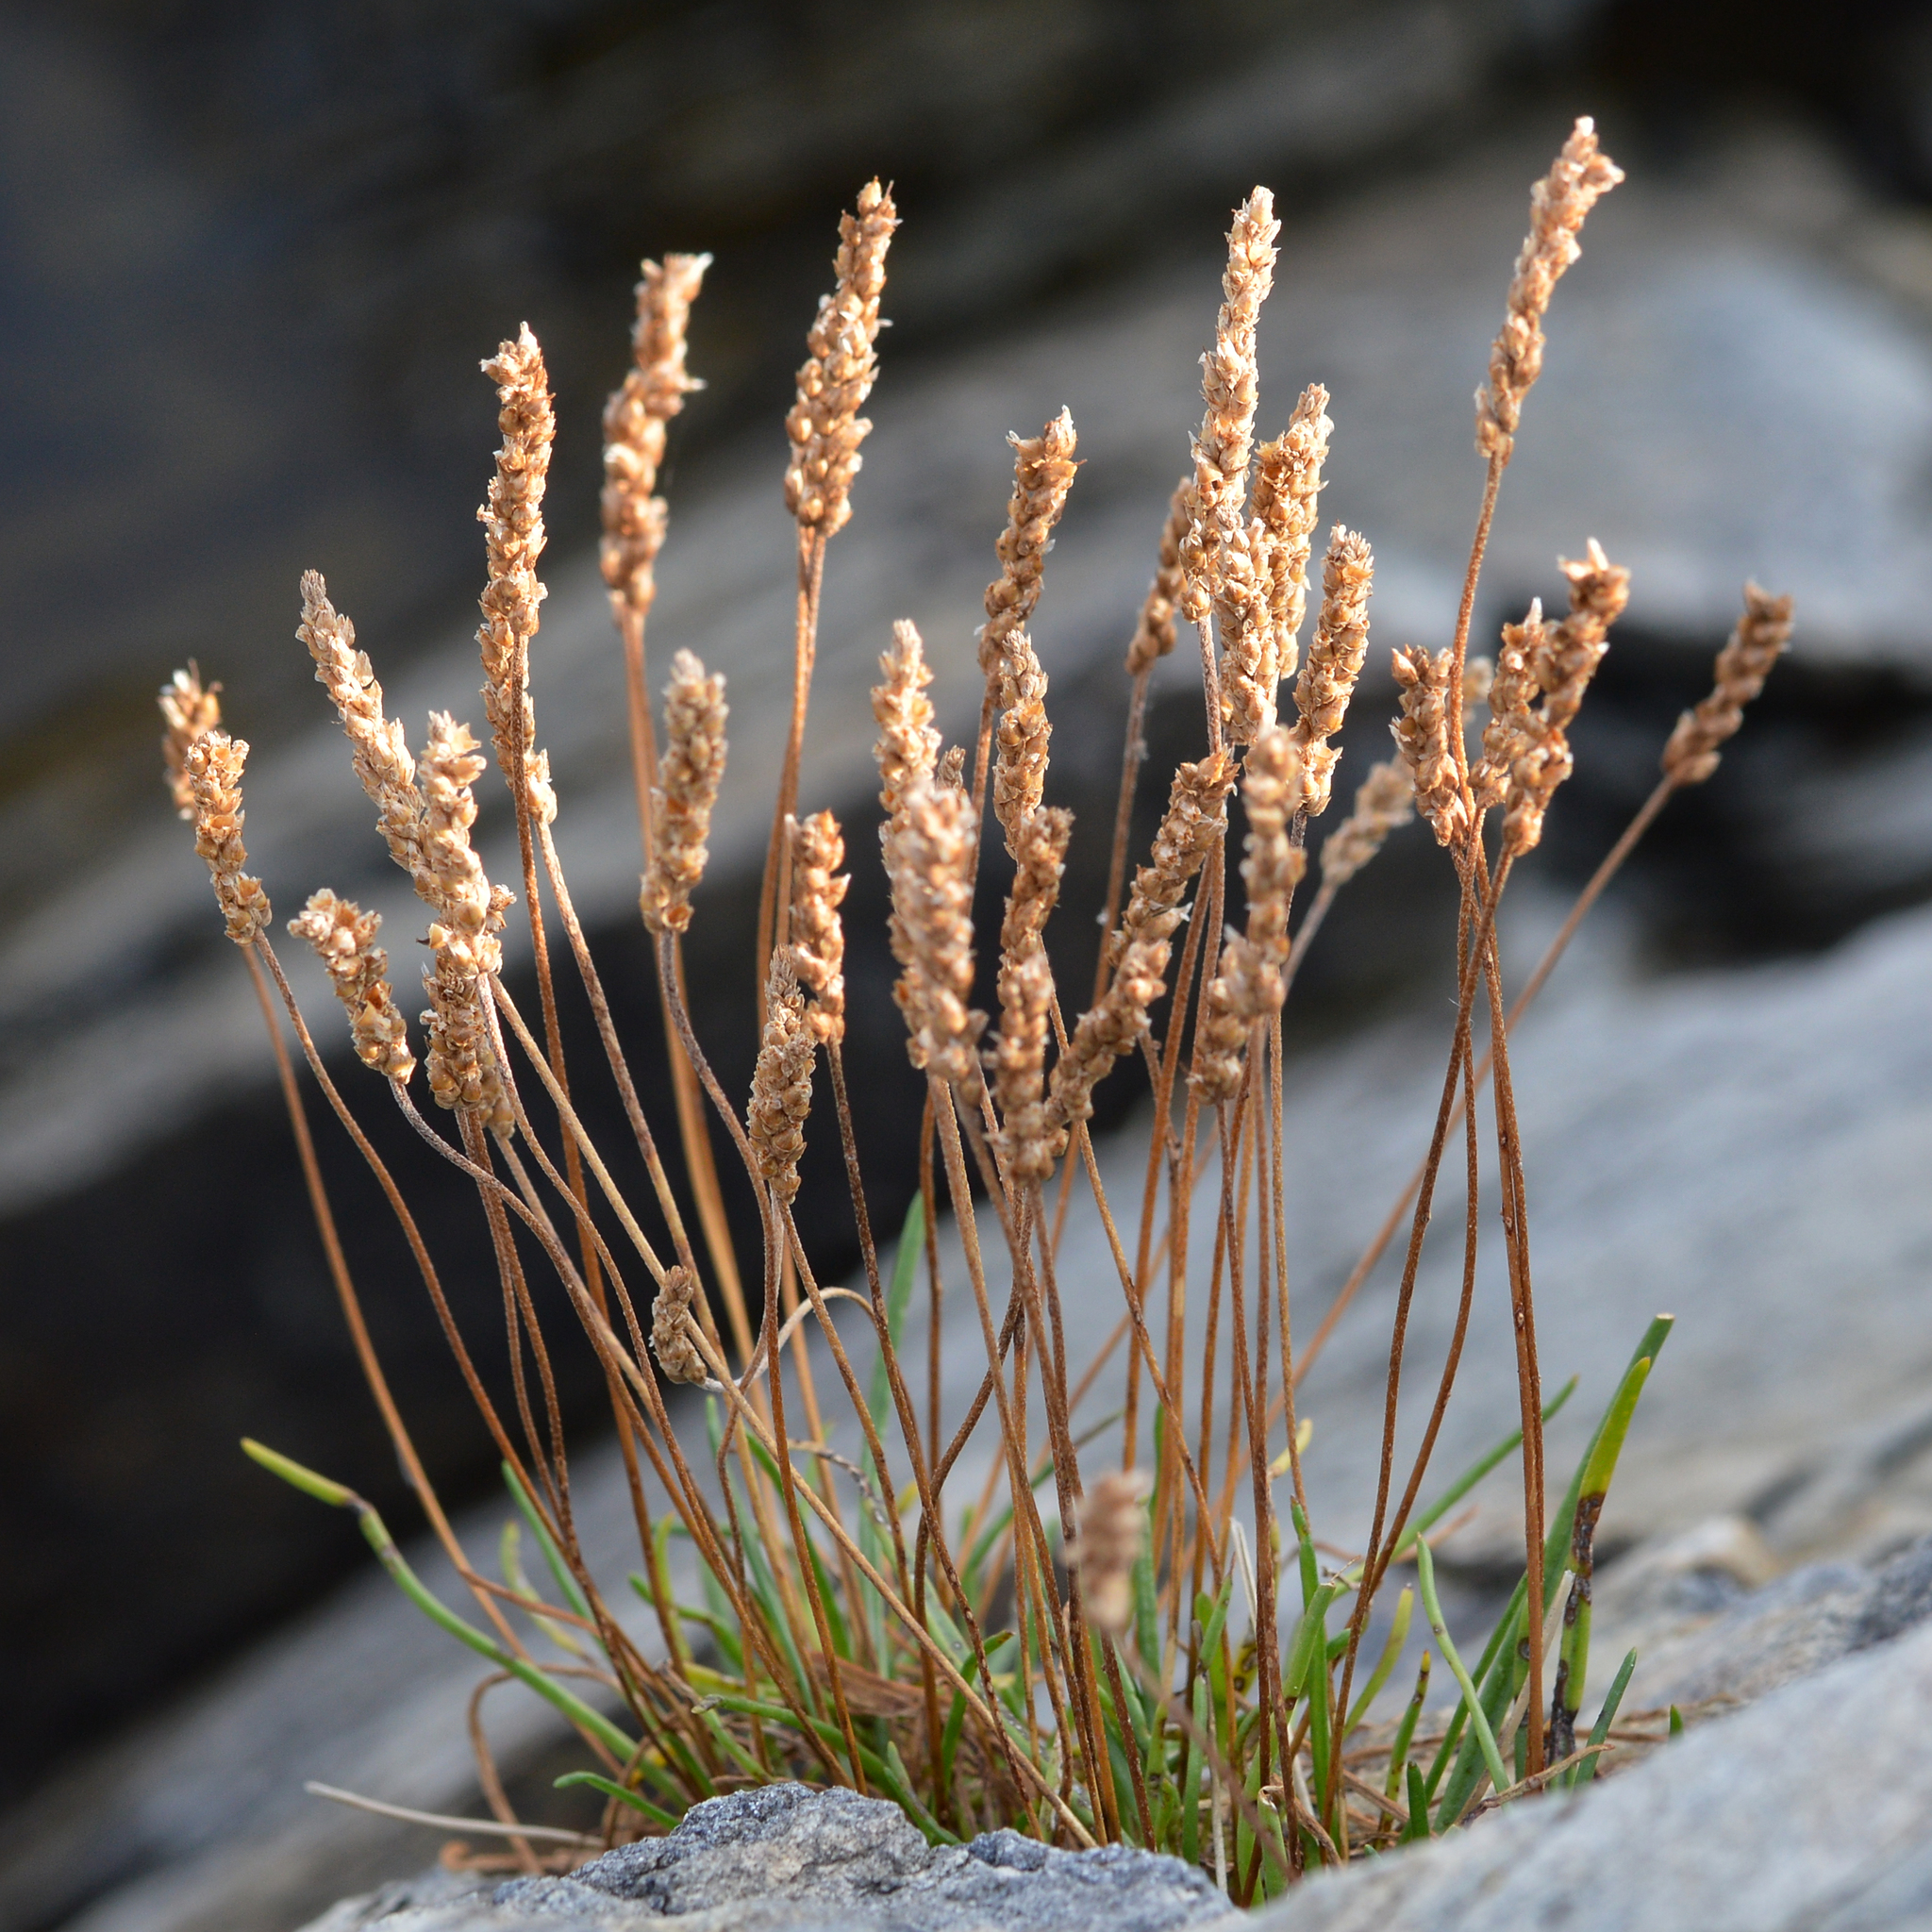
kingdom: Plantae
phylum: Tracheophyta
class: Magnoliopsida
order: Lamiales
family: Plantaginaceae
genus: Plantago
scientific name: Plantago maritima
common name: Sea plantain
